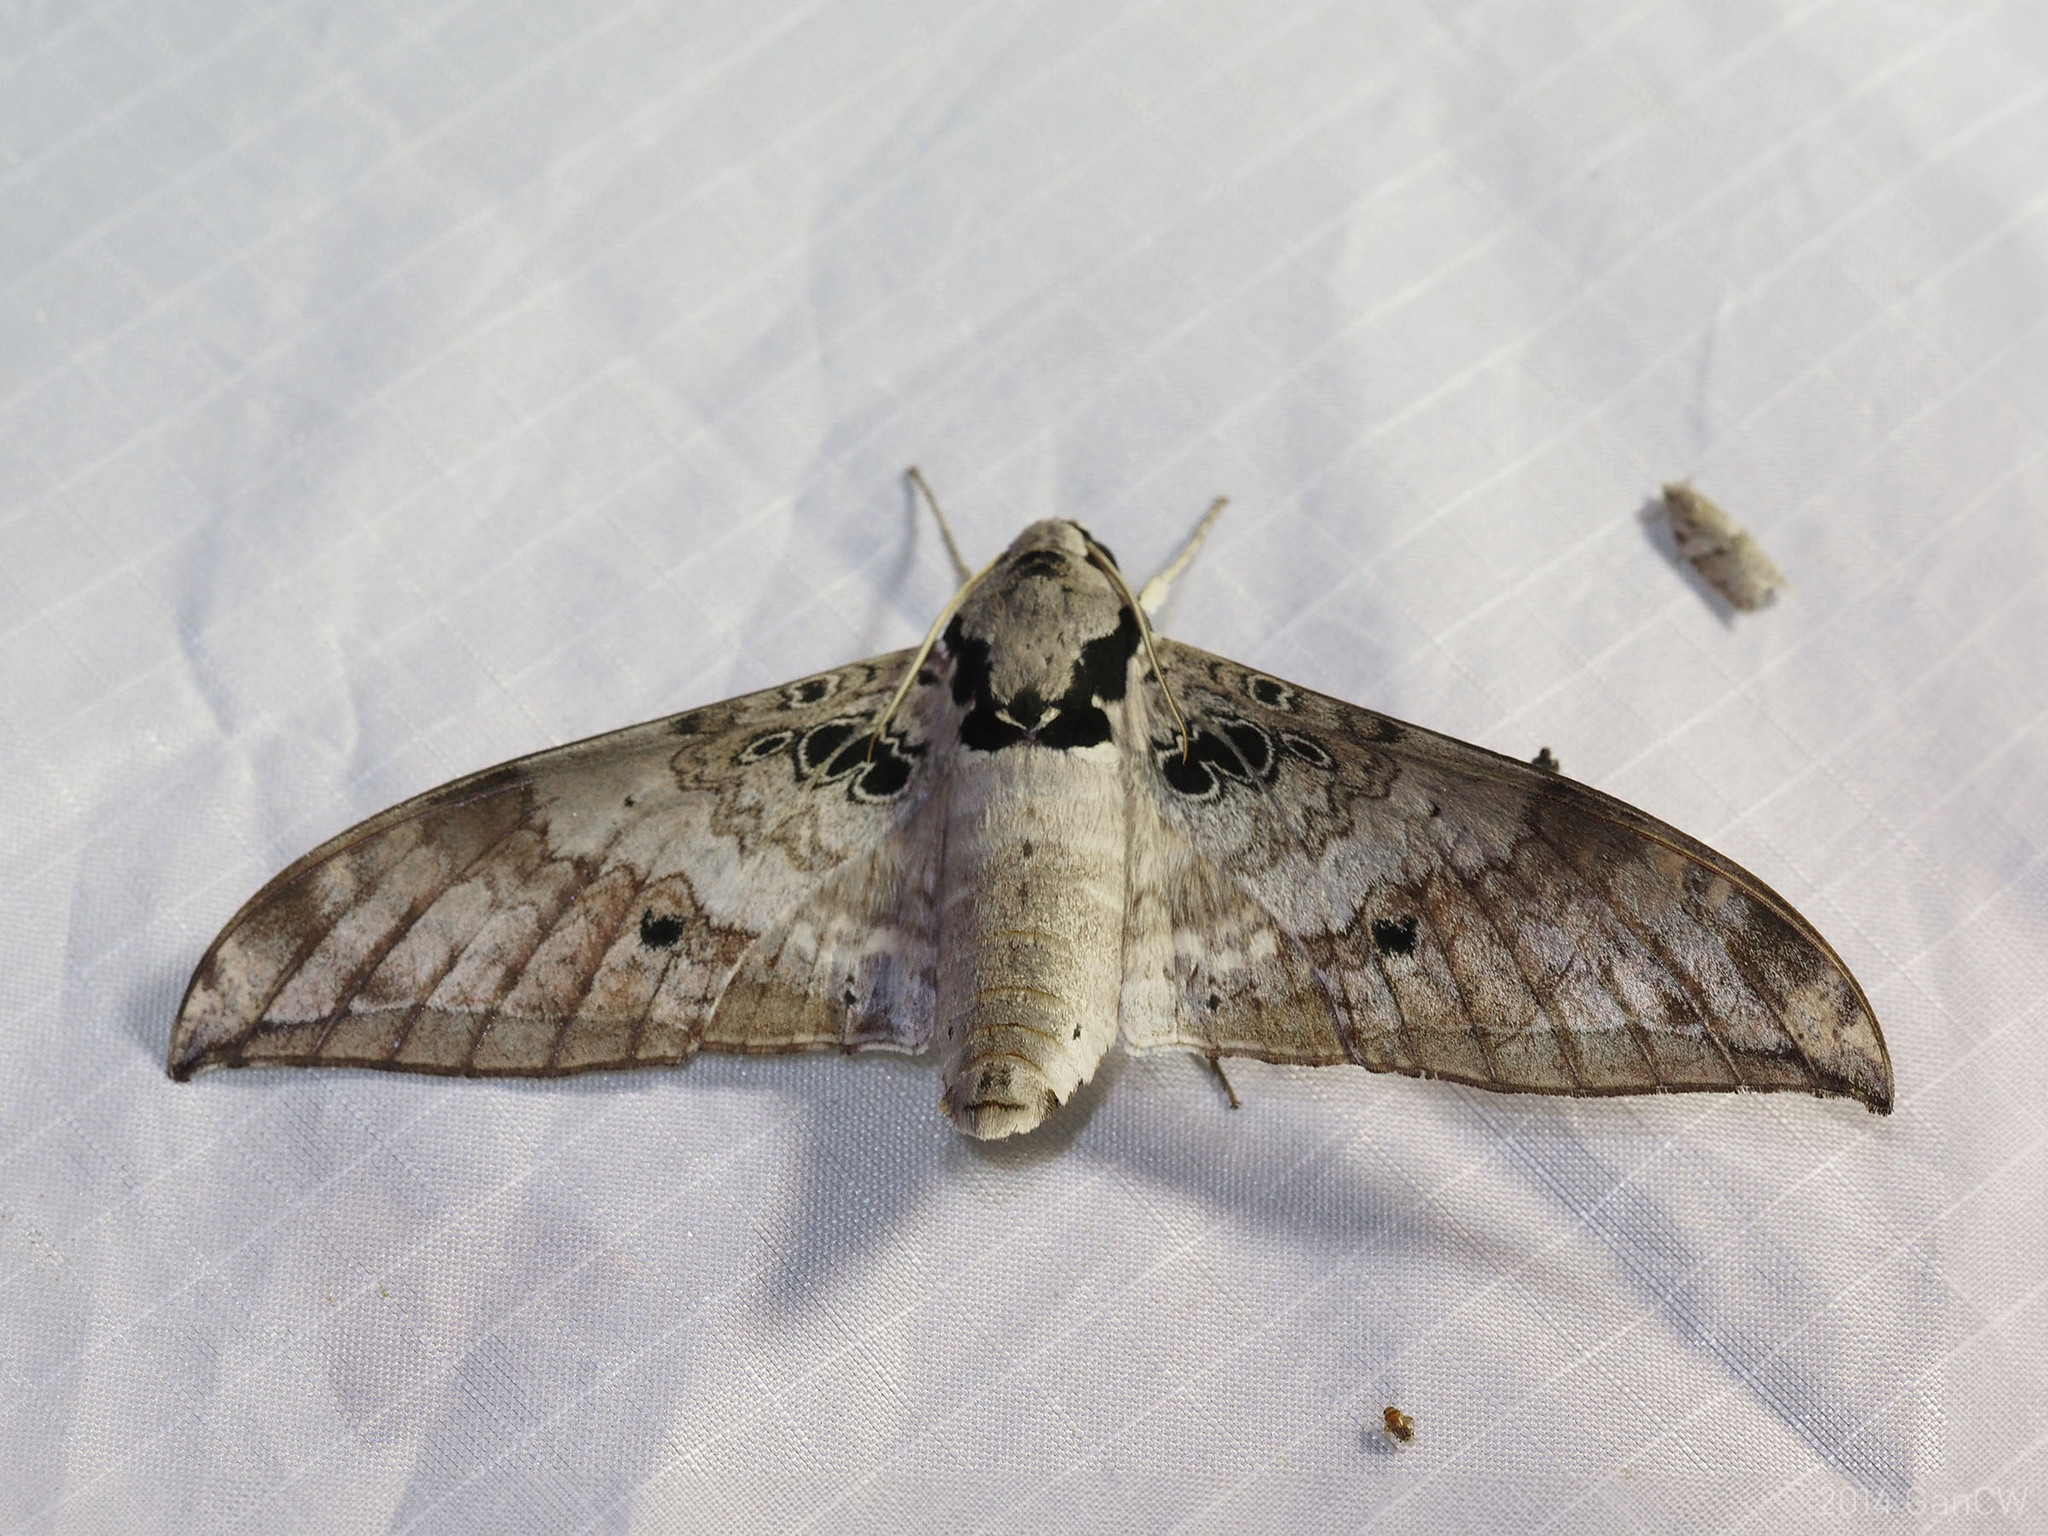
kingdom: Animalia
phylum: Arthropoda
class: Insecta
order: Lepidoptera
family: Sphingidae
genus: Ambulyx
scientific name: Ambulyx canescens
